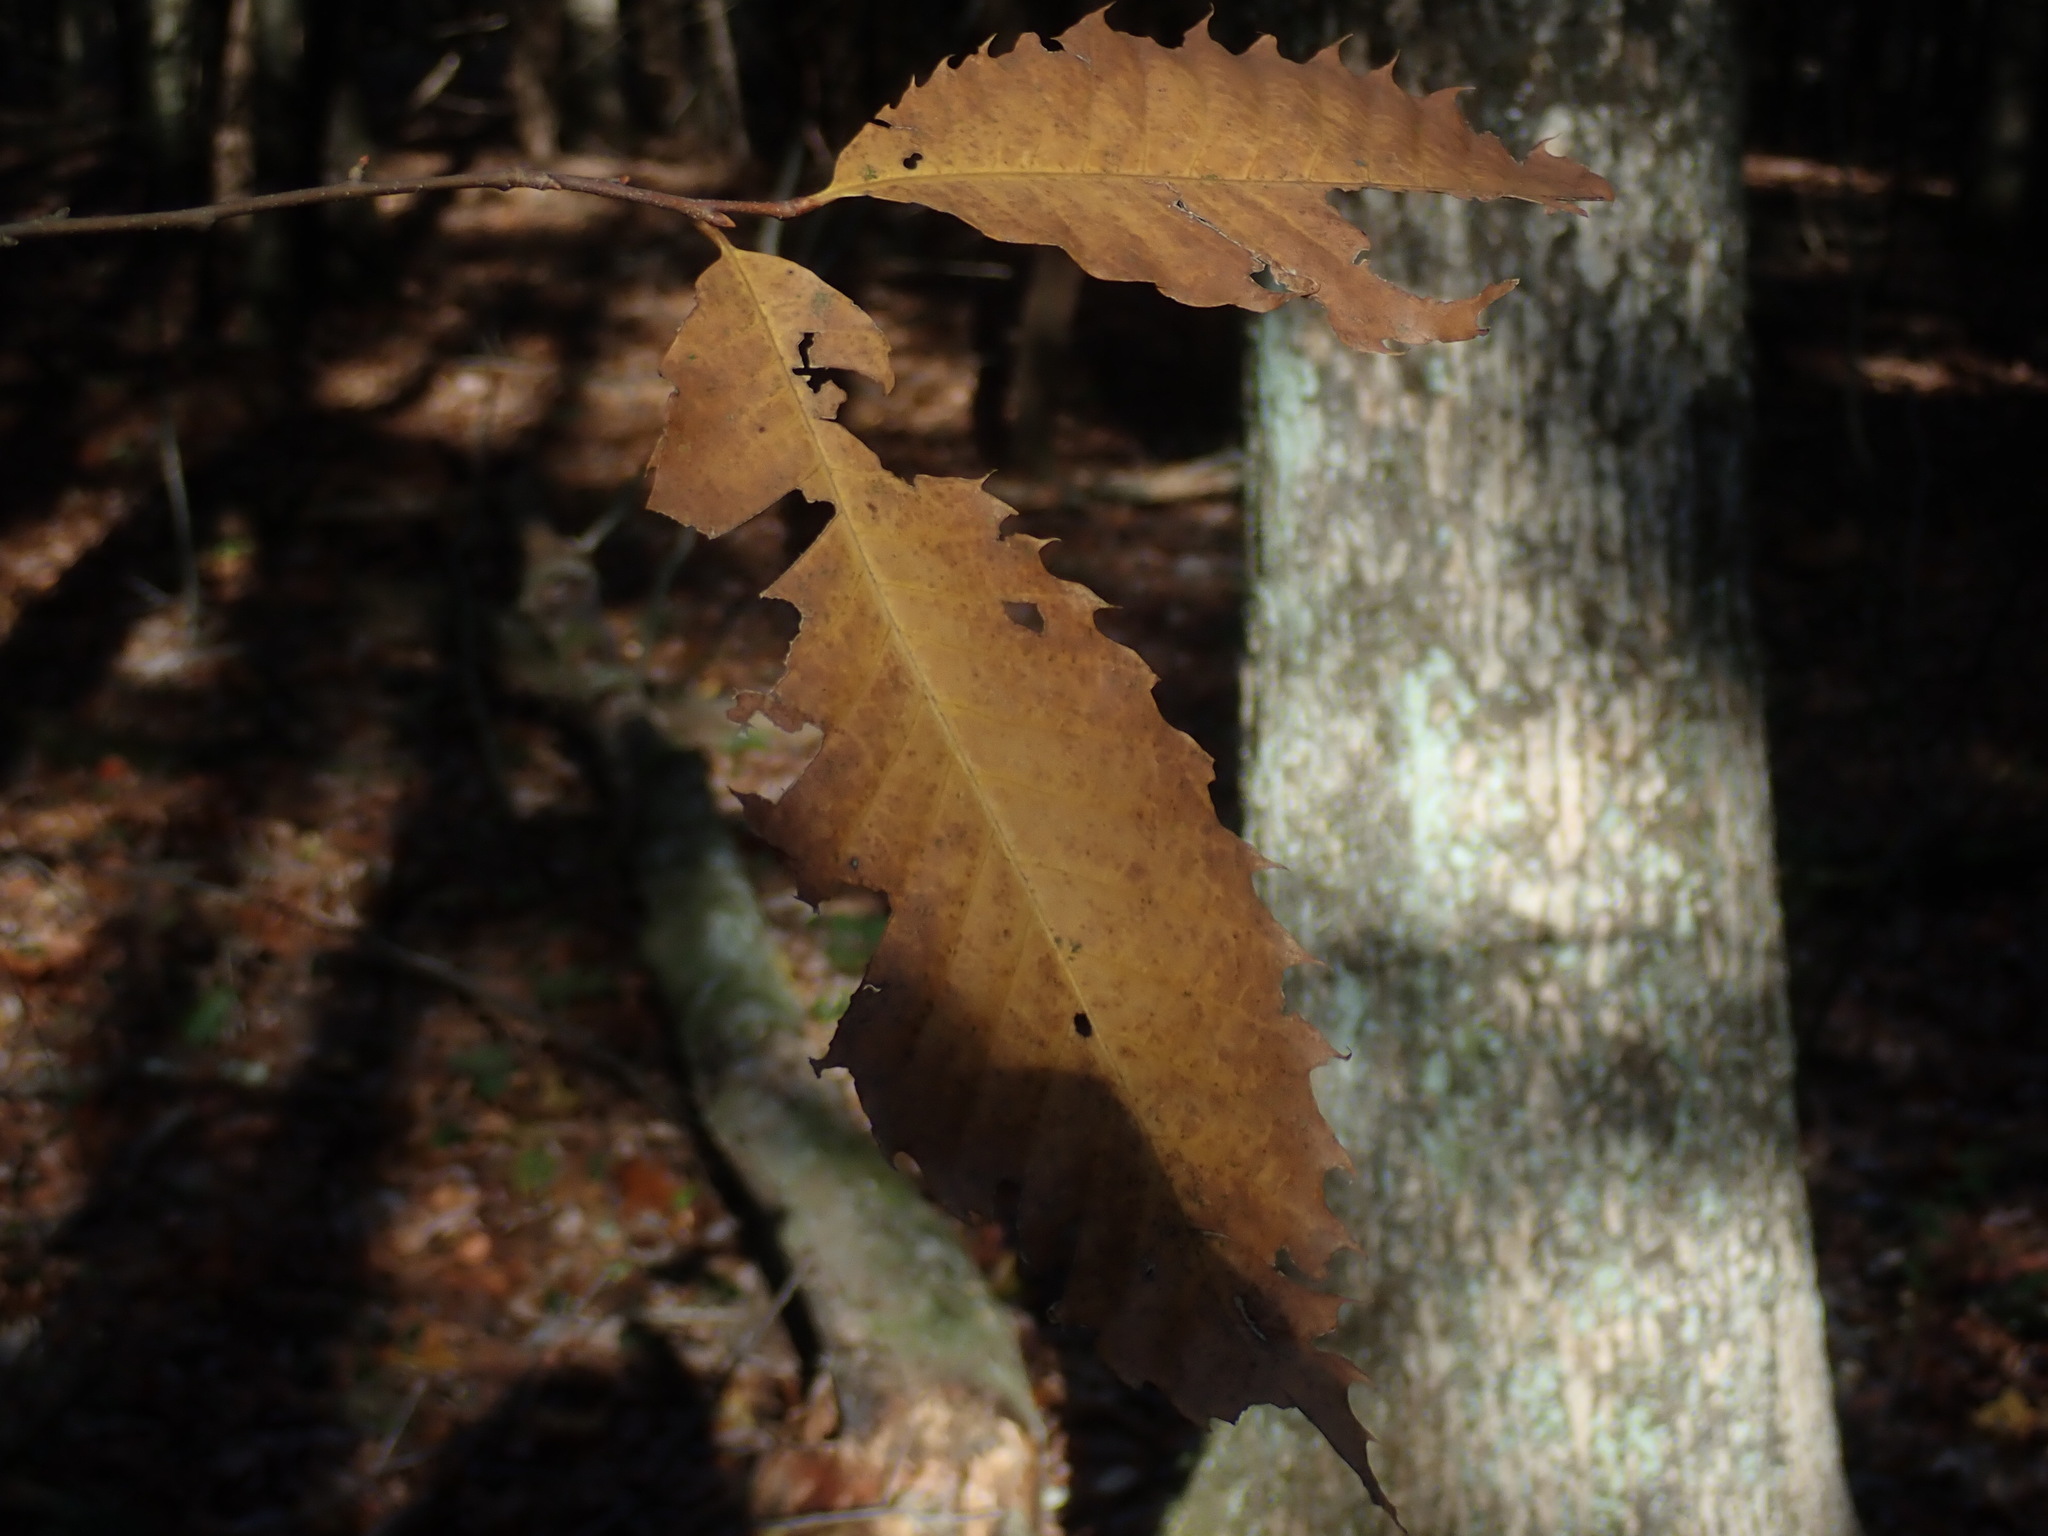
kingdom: Plantae
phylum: Tracheophyta
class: Magnoliopsida
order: Fagales
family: Fagaceae
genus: Castanea
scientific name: Castanea dentata
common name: American chestnut
